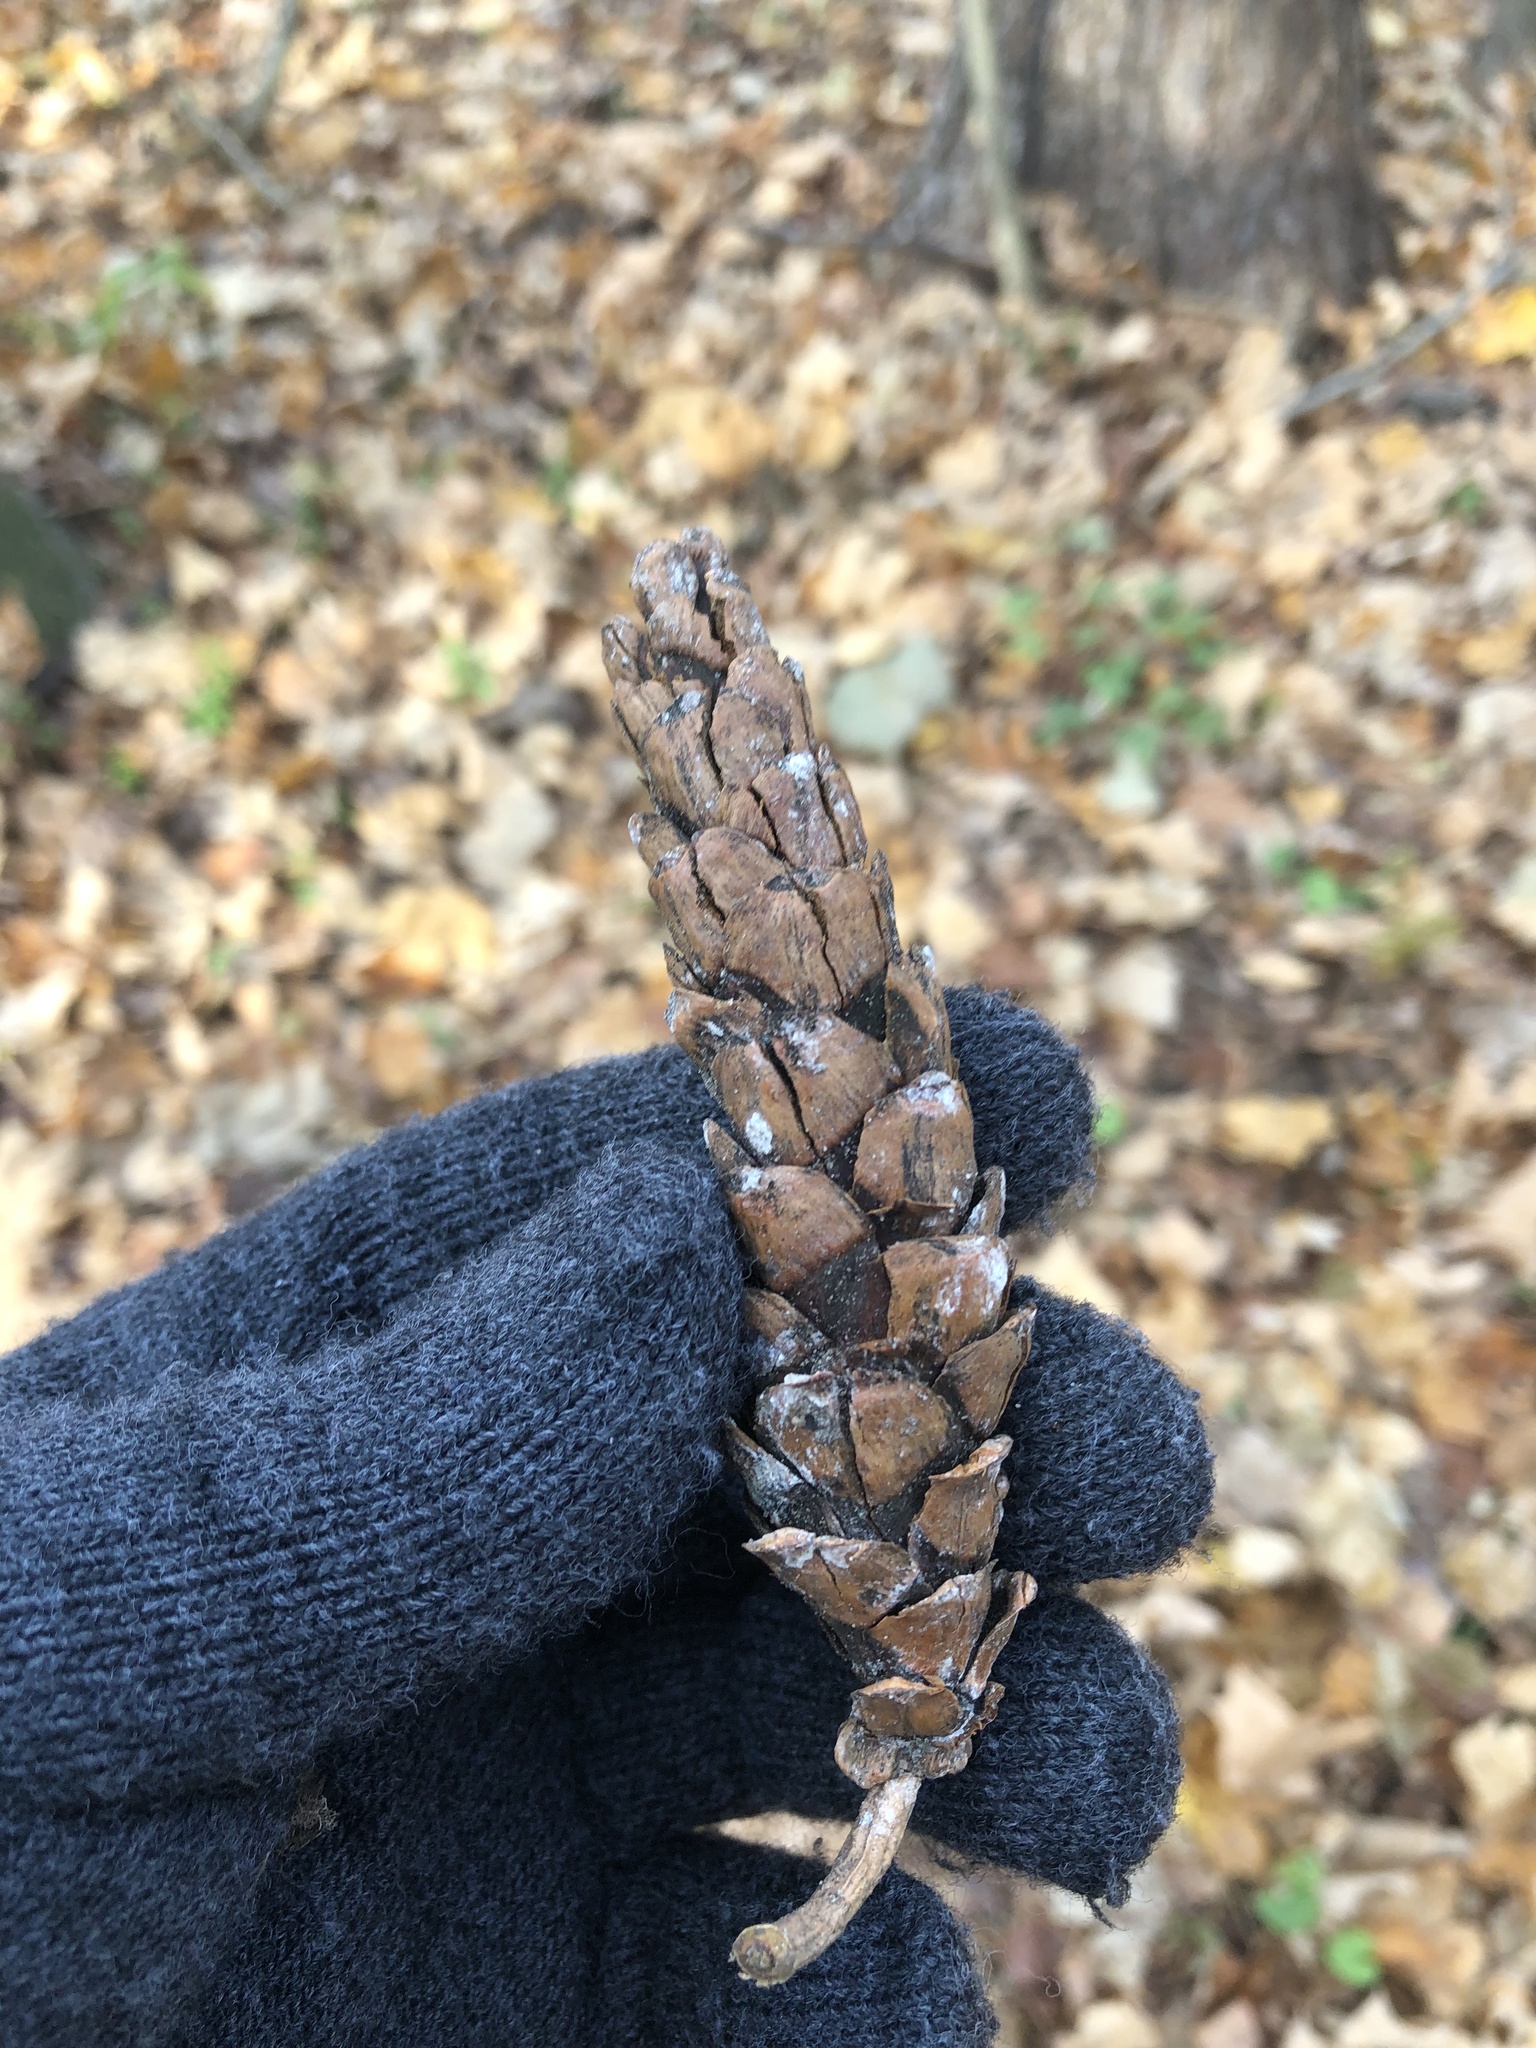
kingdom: Plantae
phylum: Tracheophyta
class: Pinopsida
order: Pinales
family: Pinaceae
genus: Pinus
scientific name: Pinus strobus
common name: Weymouth pine
